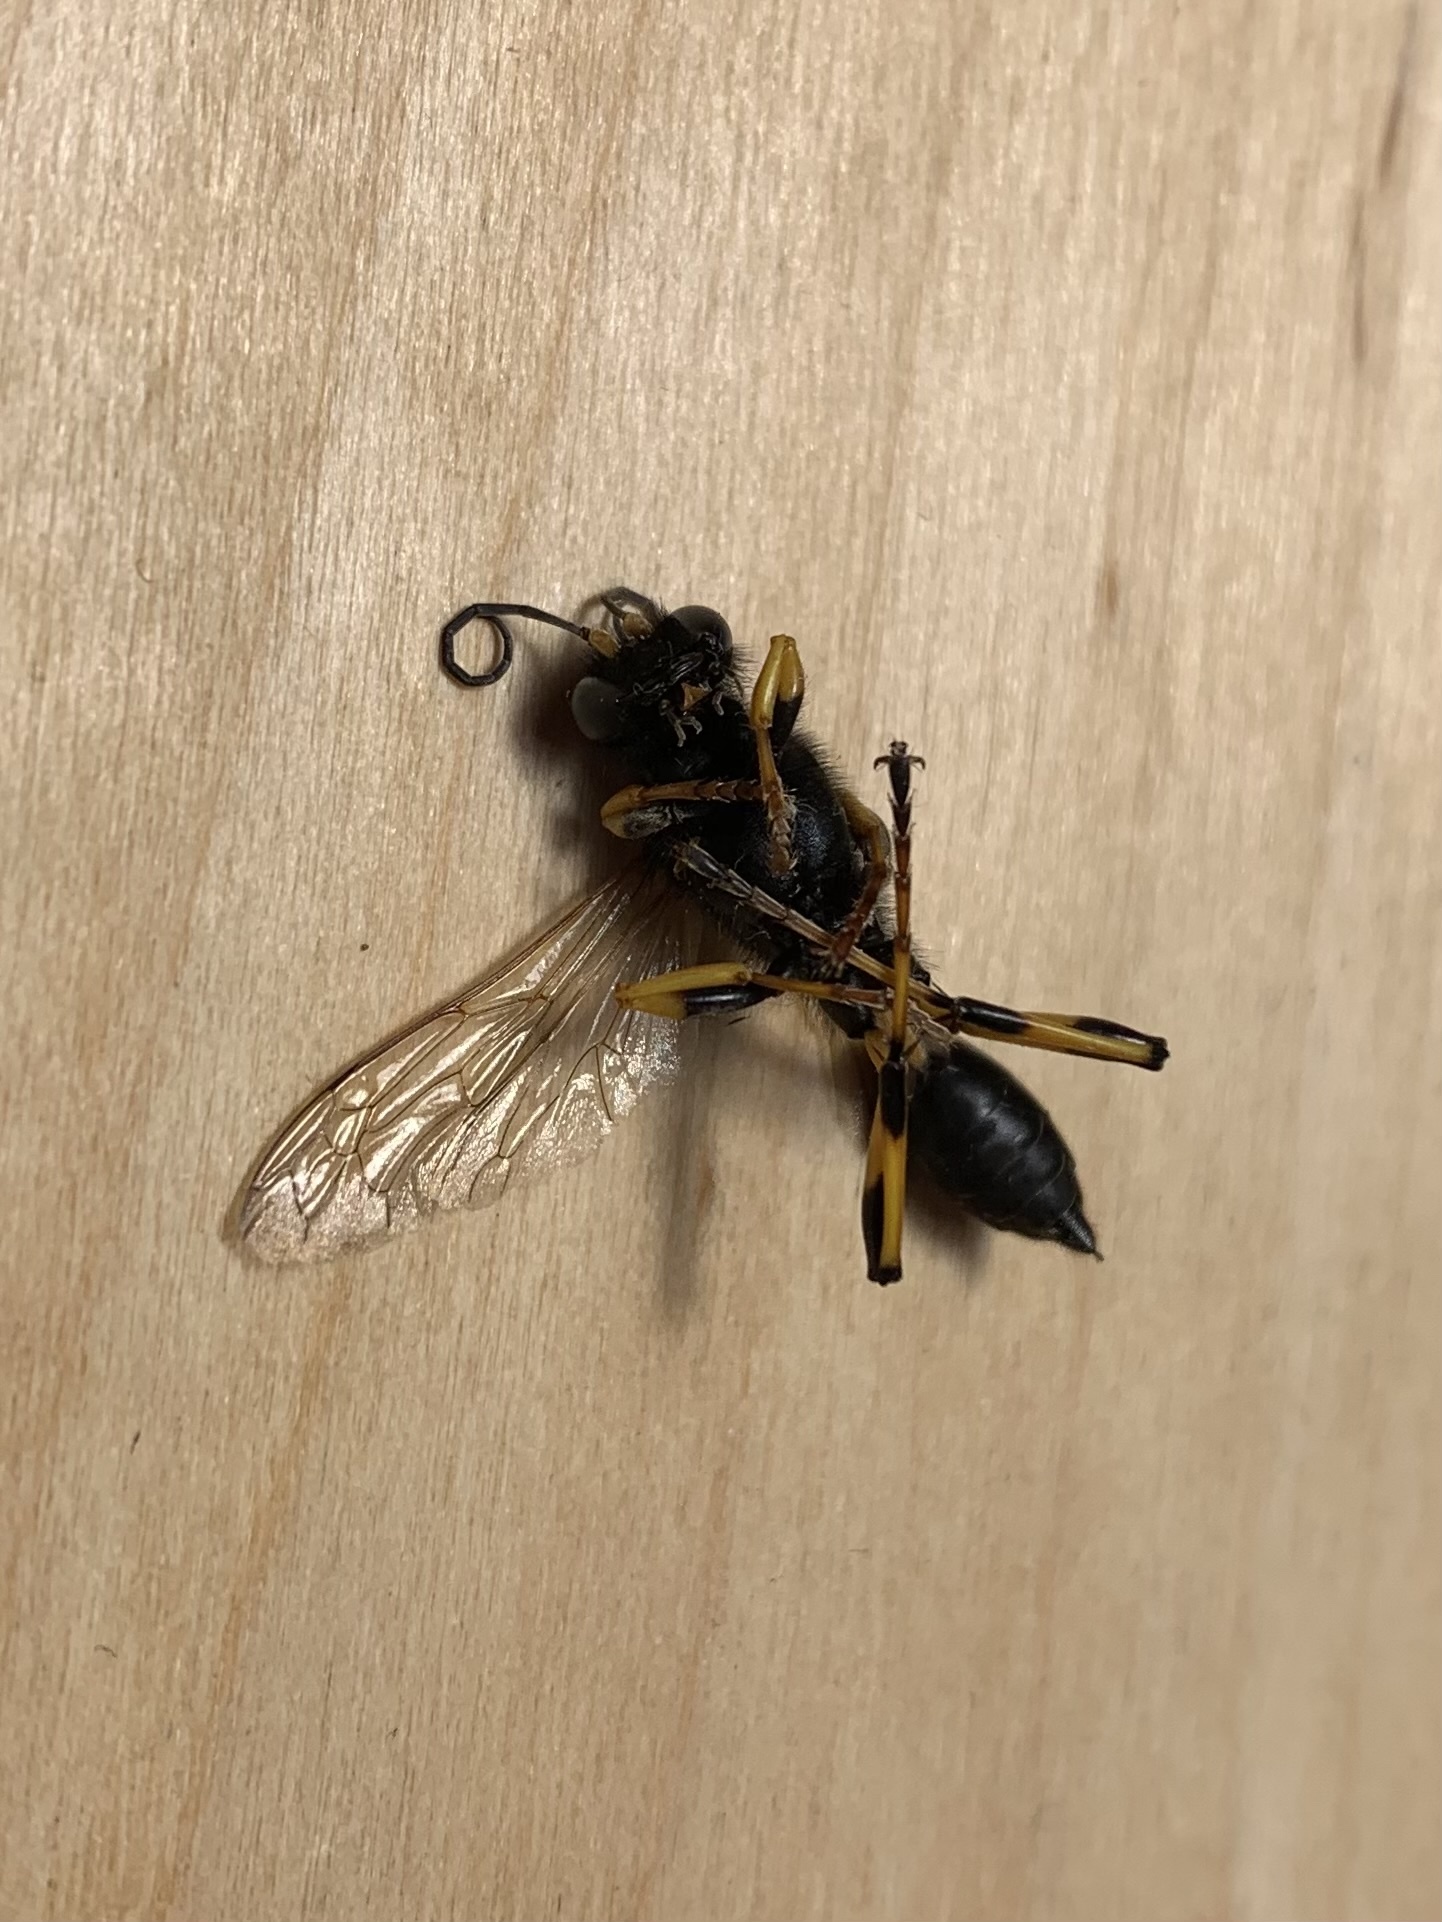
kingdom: Animalia
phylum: Arthropoda
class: Insecta
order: Hymenoptera
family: Sphecidae
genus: Sceliphron
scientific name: Sceliphron destillatorium
